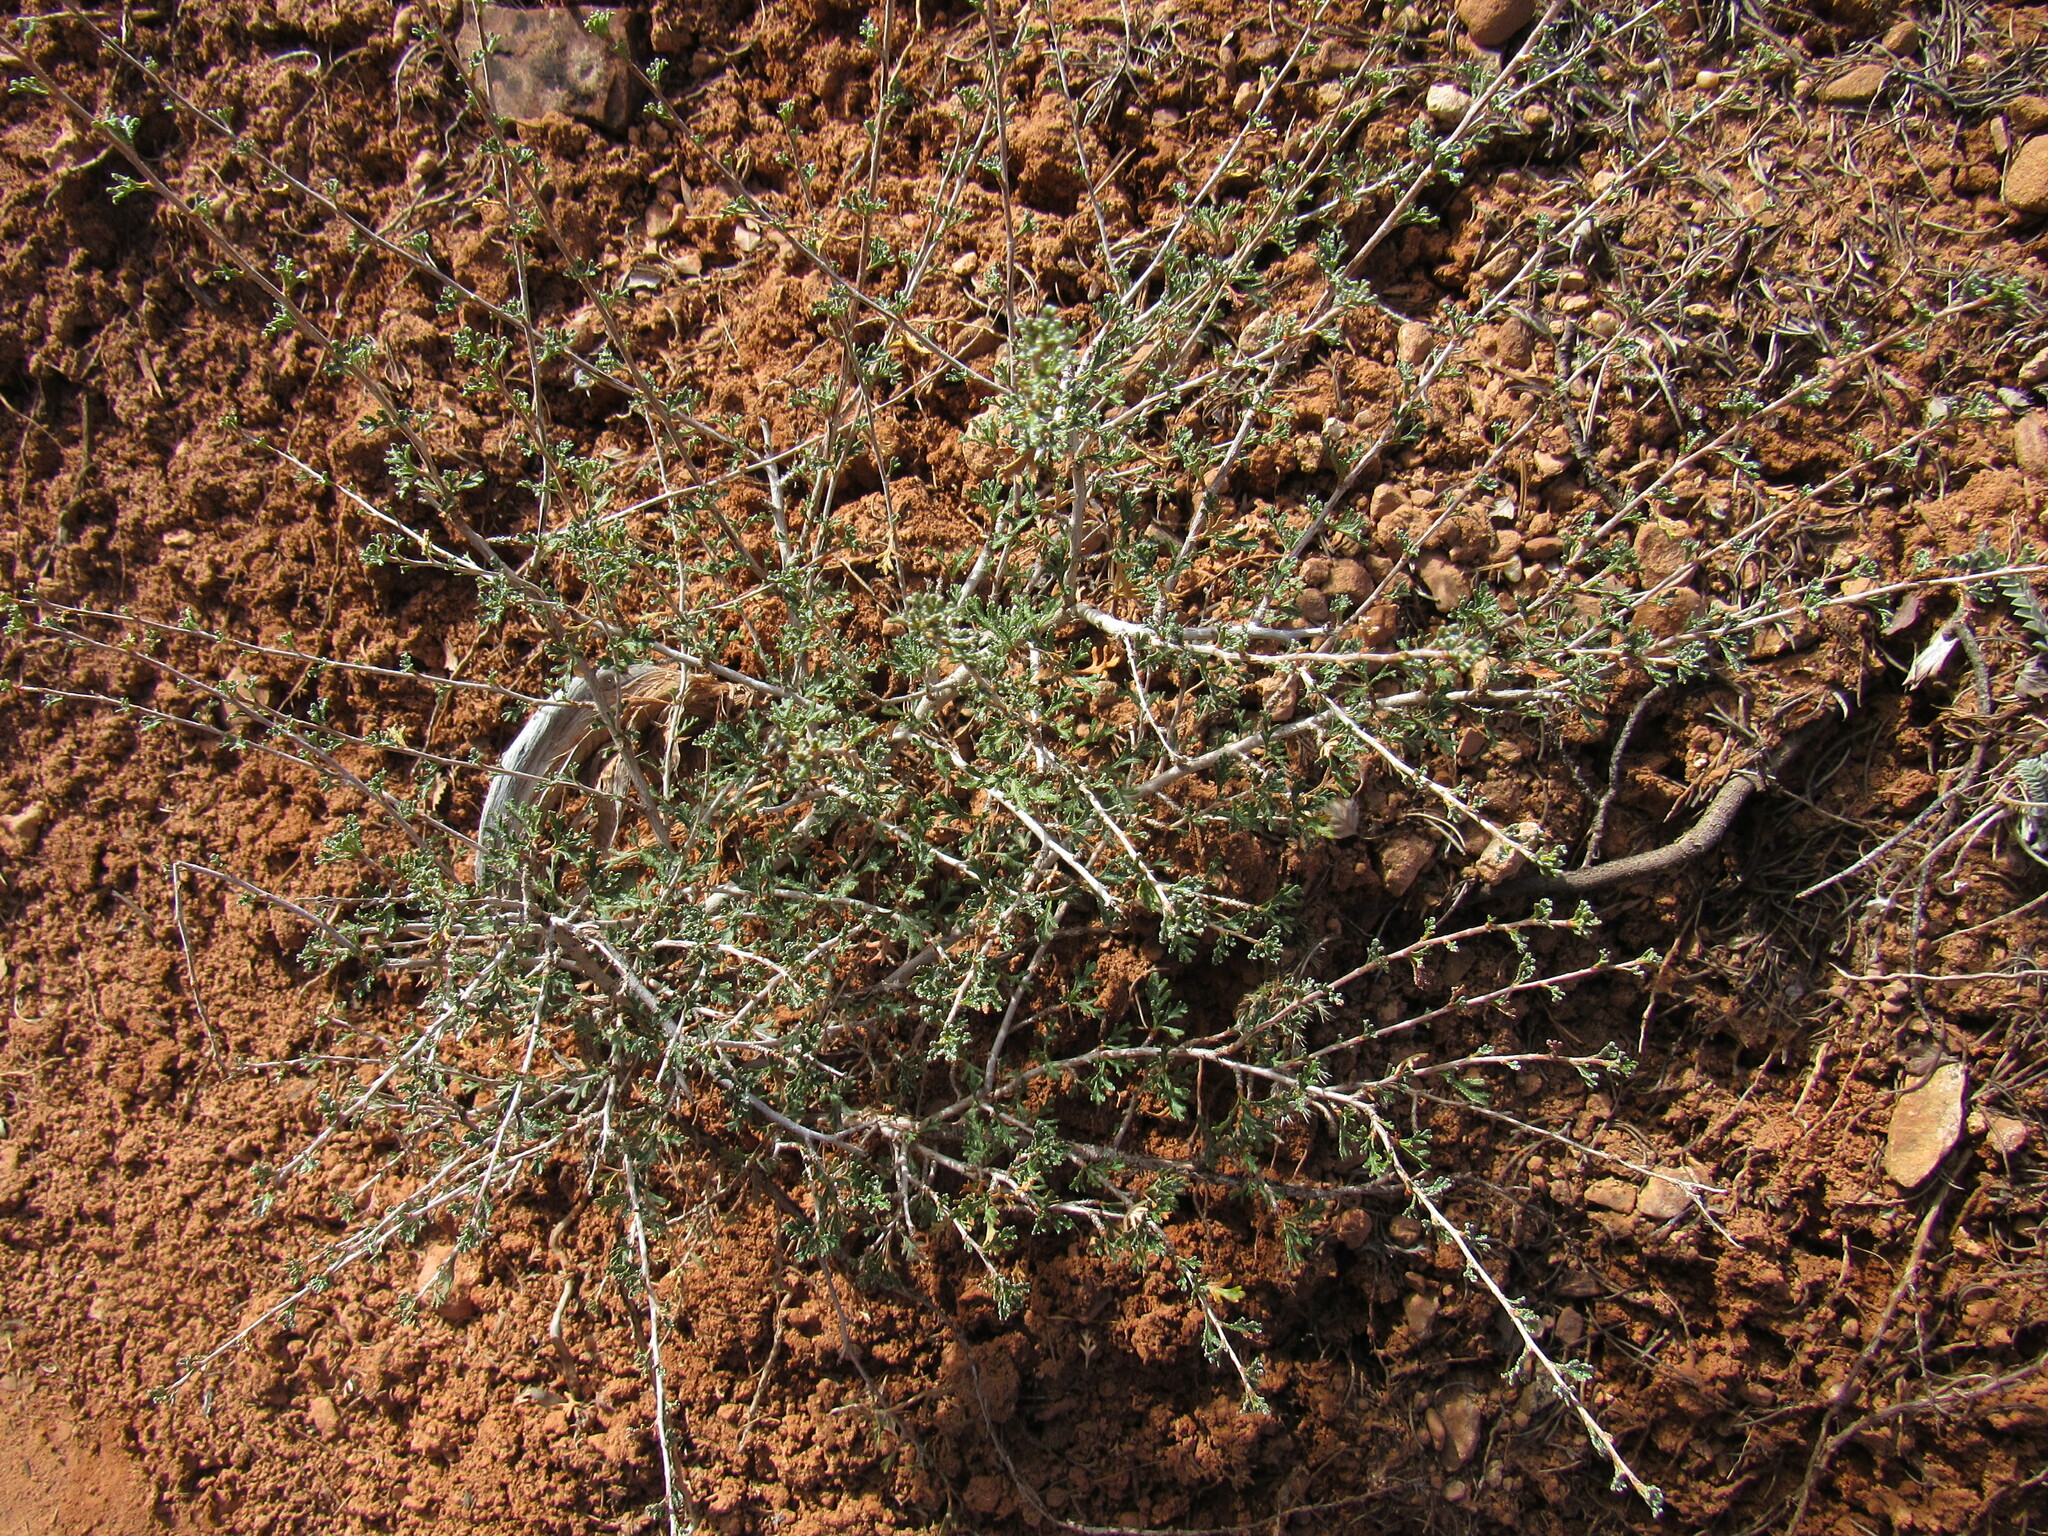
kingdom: Plantae
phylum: Tracheophyta
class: Magnoliopsida
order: Rosales
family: Rosaceae
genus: Purshia
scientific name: Purshia stansburiana
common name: Stansbury's cliffrose
